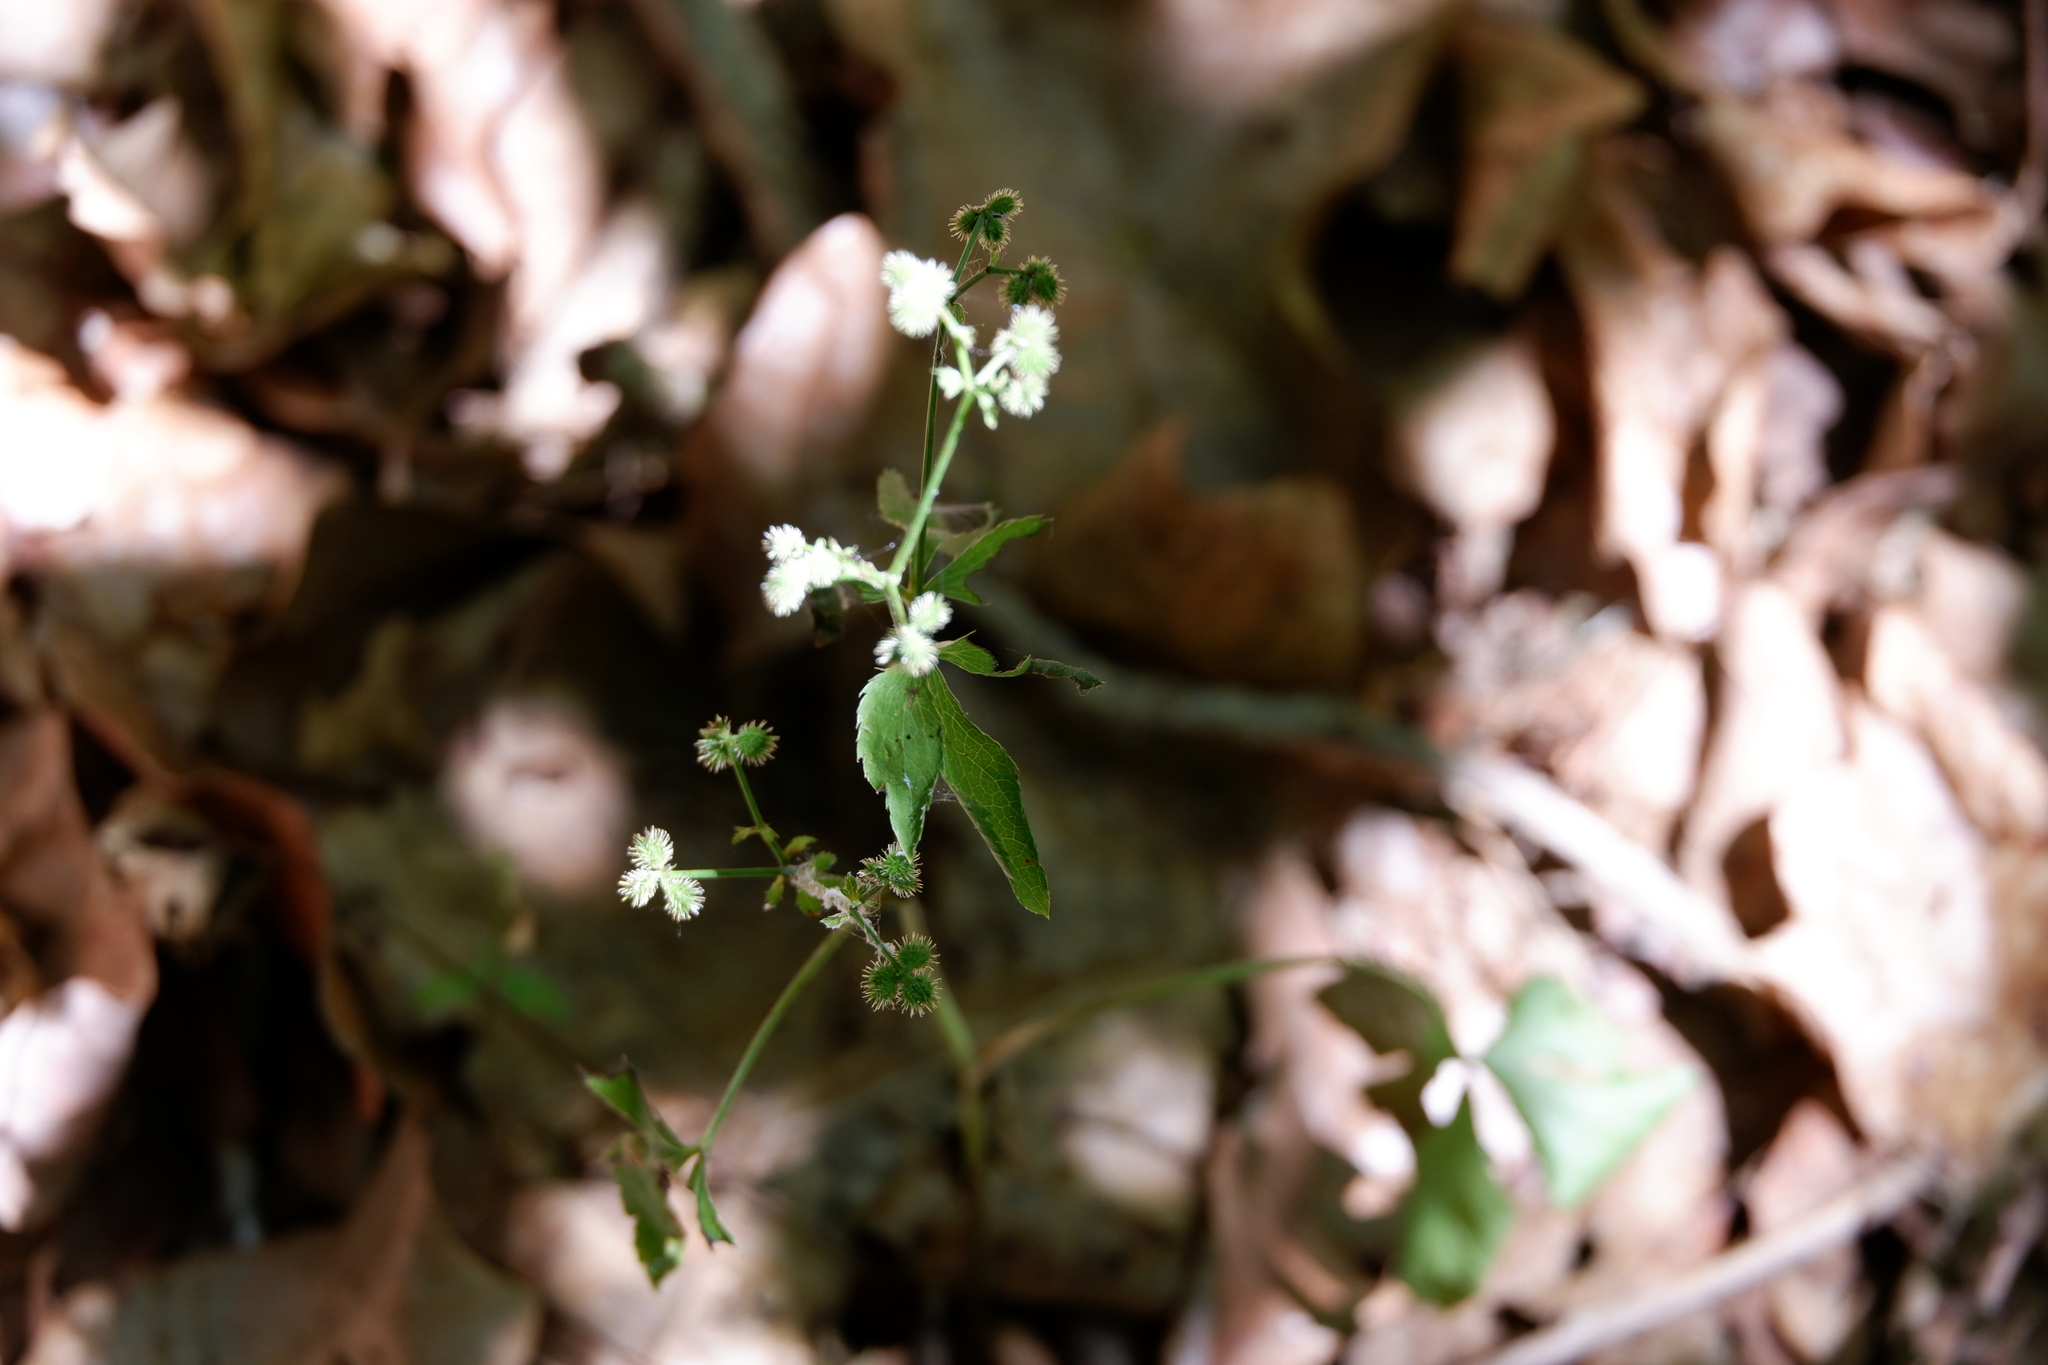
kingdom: Plantae
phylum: Tracheophyta
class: Magnoliopsida
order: Apiales
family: Apiaceae
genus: Sanicula
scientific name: Sanicula canadensis
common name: Canada sanicle
